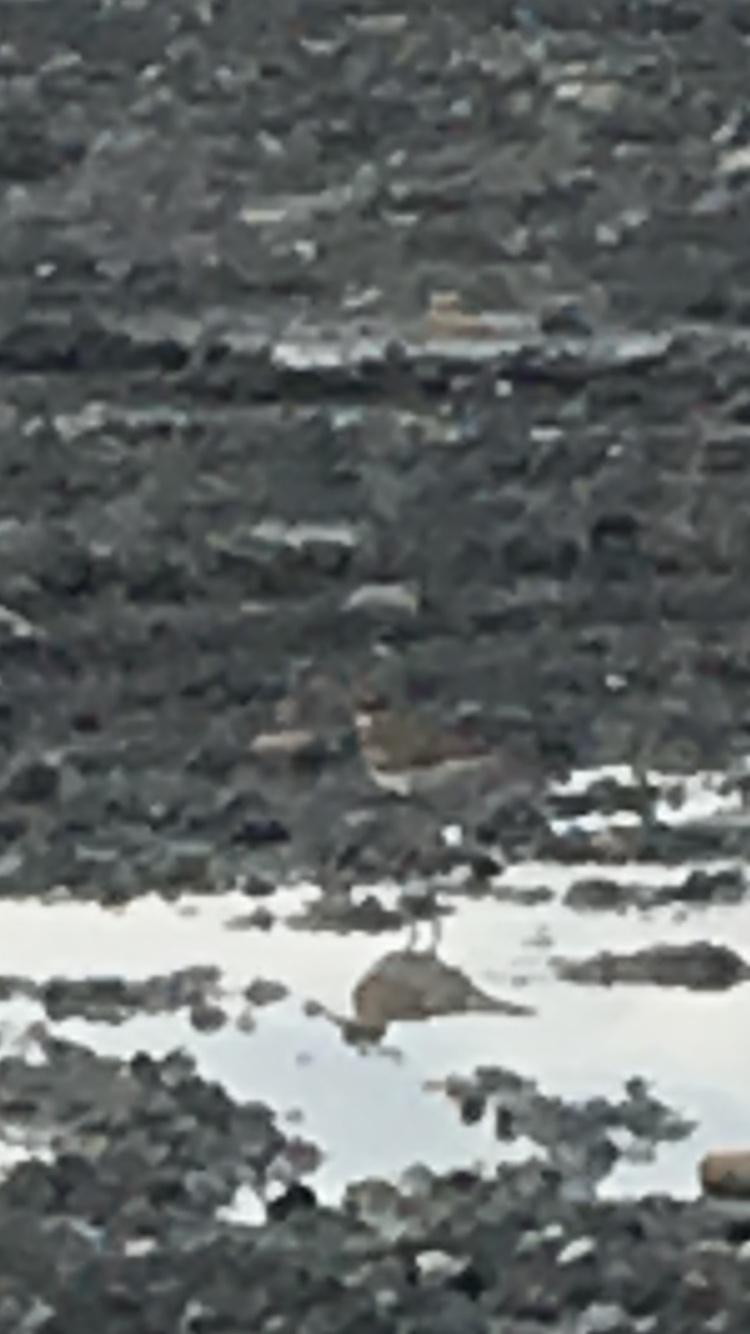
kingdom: Animalia
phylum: Chordata
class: Aves
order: Charadriiformes
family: Charadriidae
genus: Charadrius
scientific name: Charadrius vociferus
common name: Killdeer
